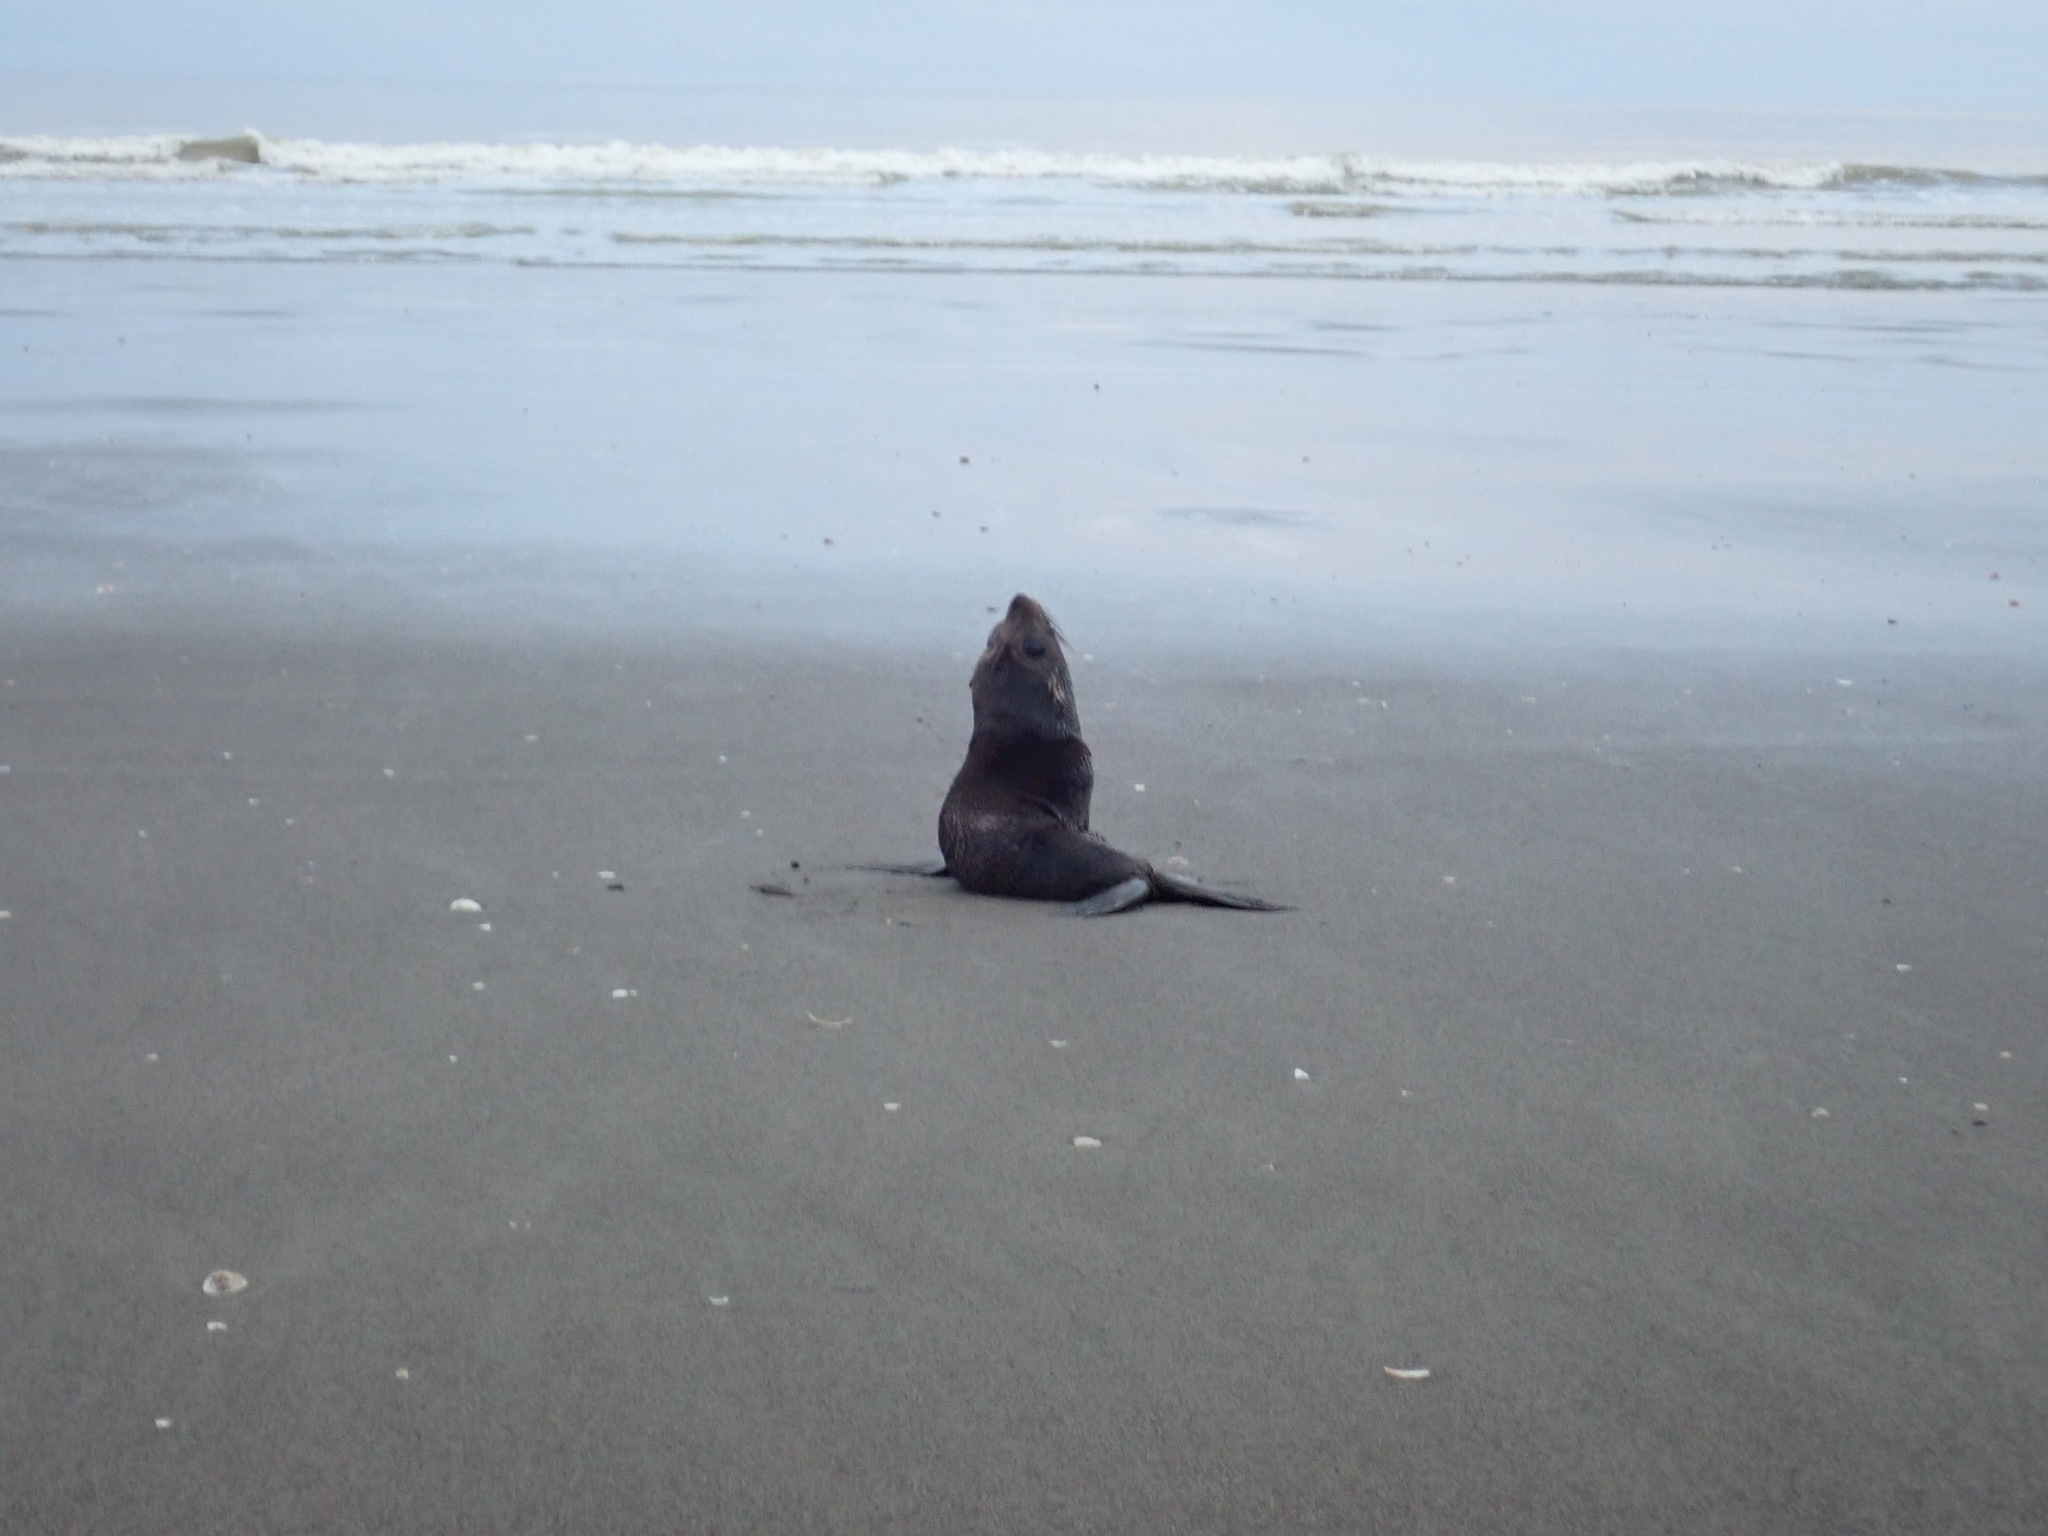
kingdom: Animalia
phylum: Chordata
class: Mammalia
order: Carnivora
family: Otariidae
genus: Arctocephalus
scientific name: Arctocephalus forsteri
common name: New zealand fur seal
